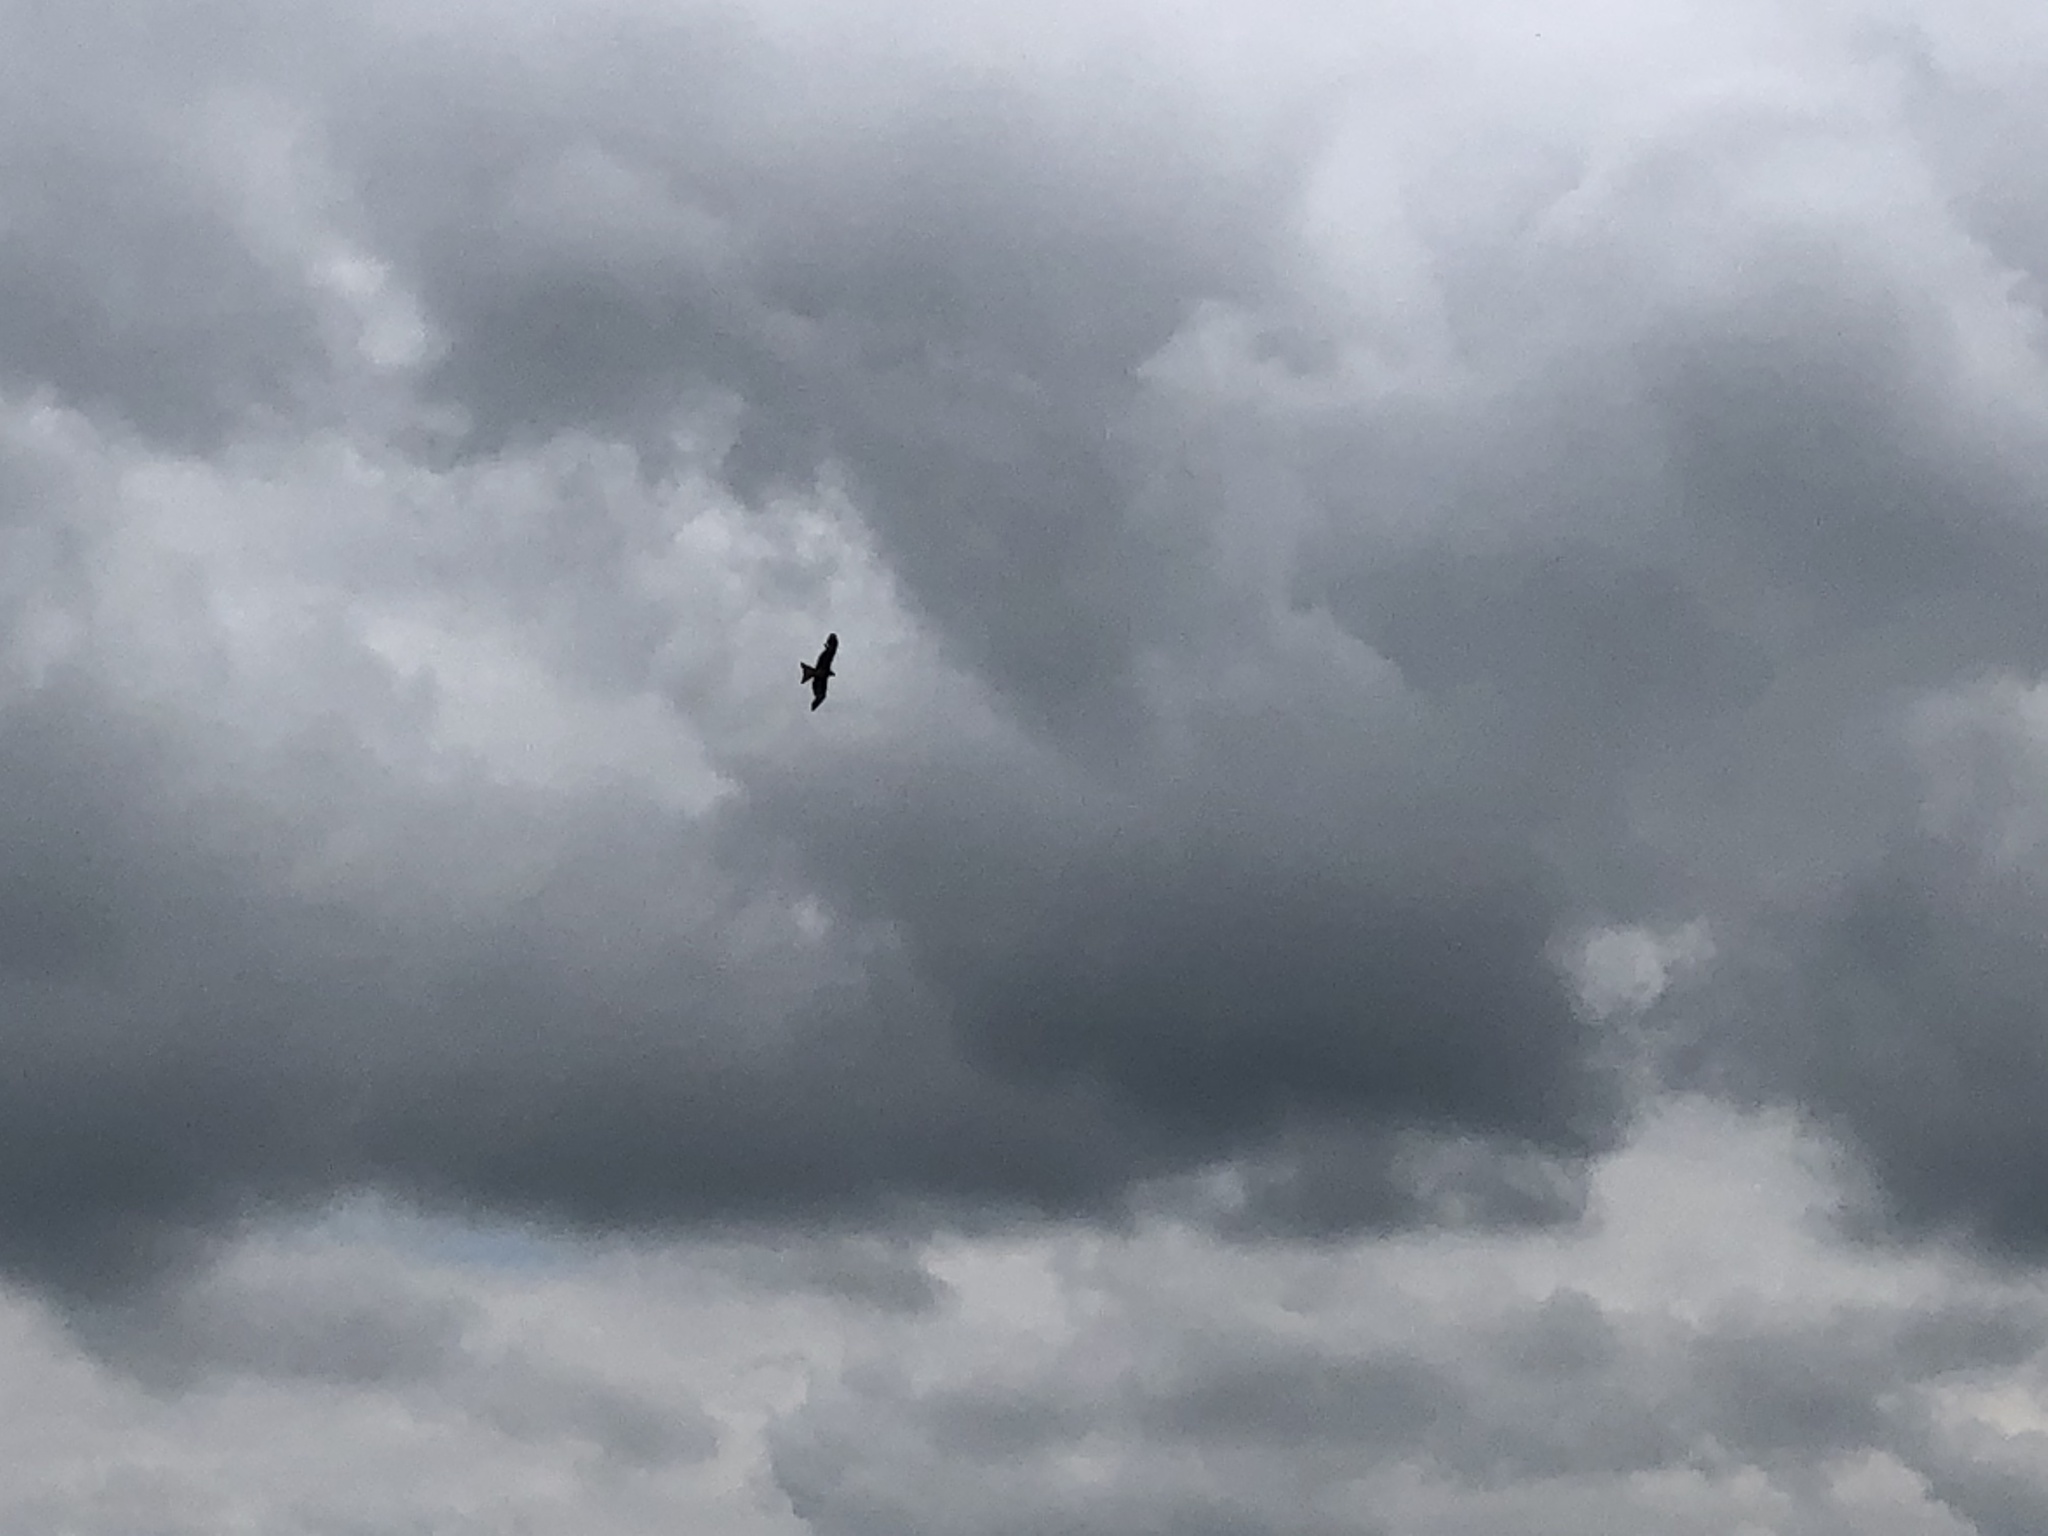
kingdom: Animalia
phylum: Chordata
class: Aves
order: Accipitriformes
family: Accipitridae
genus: Milvus
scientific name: Milvus milvus
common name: Red kite
